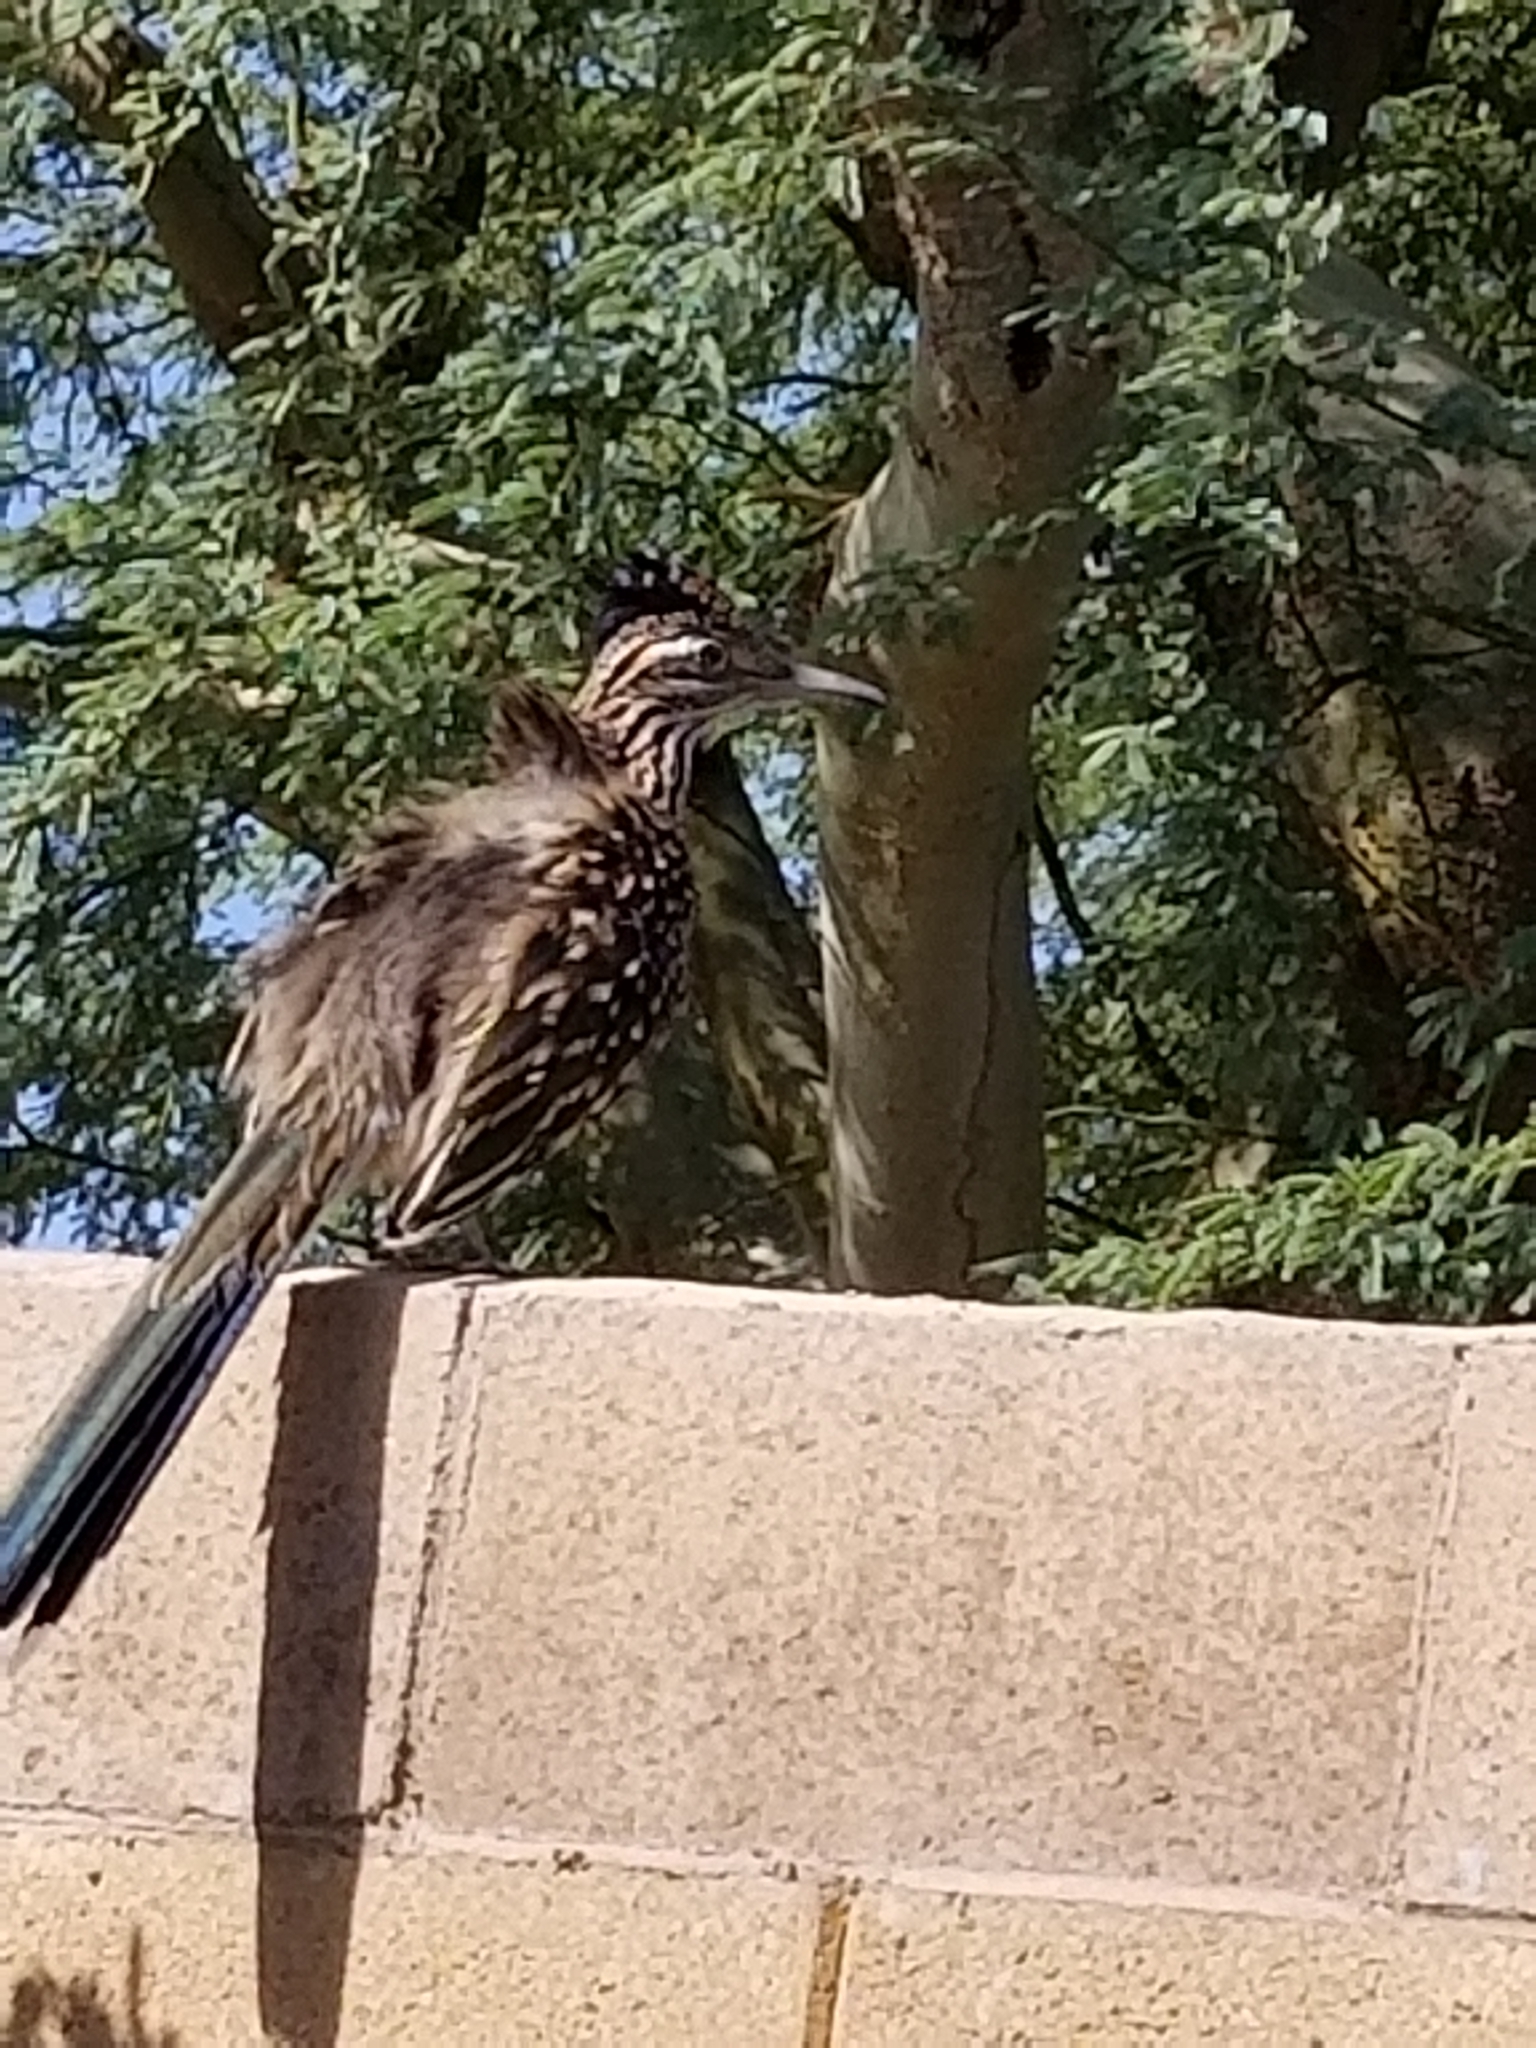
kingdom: Animalia
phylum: Chordata
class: Aves
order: Cuculiformes
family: Cuculidae
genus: Geococcyx
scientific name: Geococcyx californianus
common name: Greater roadrunner
